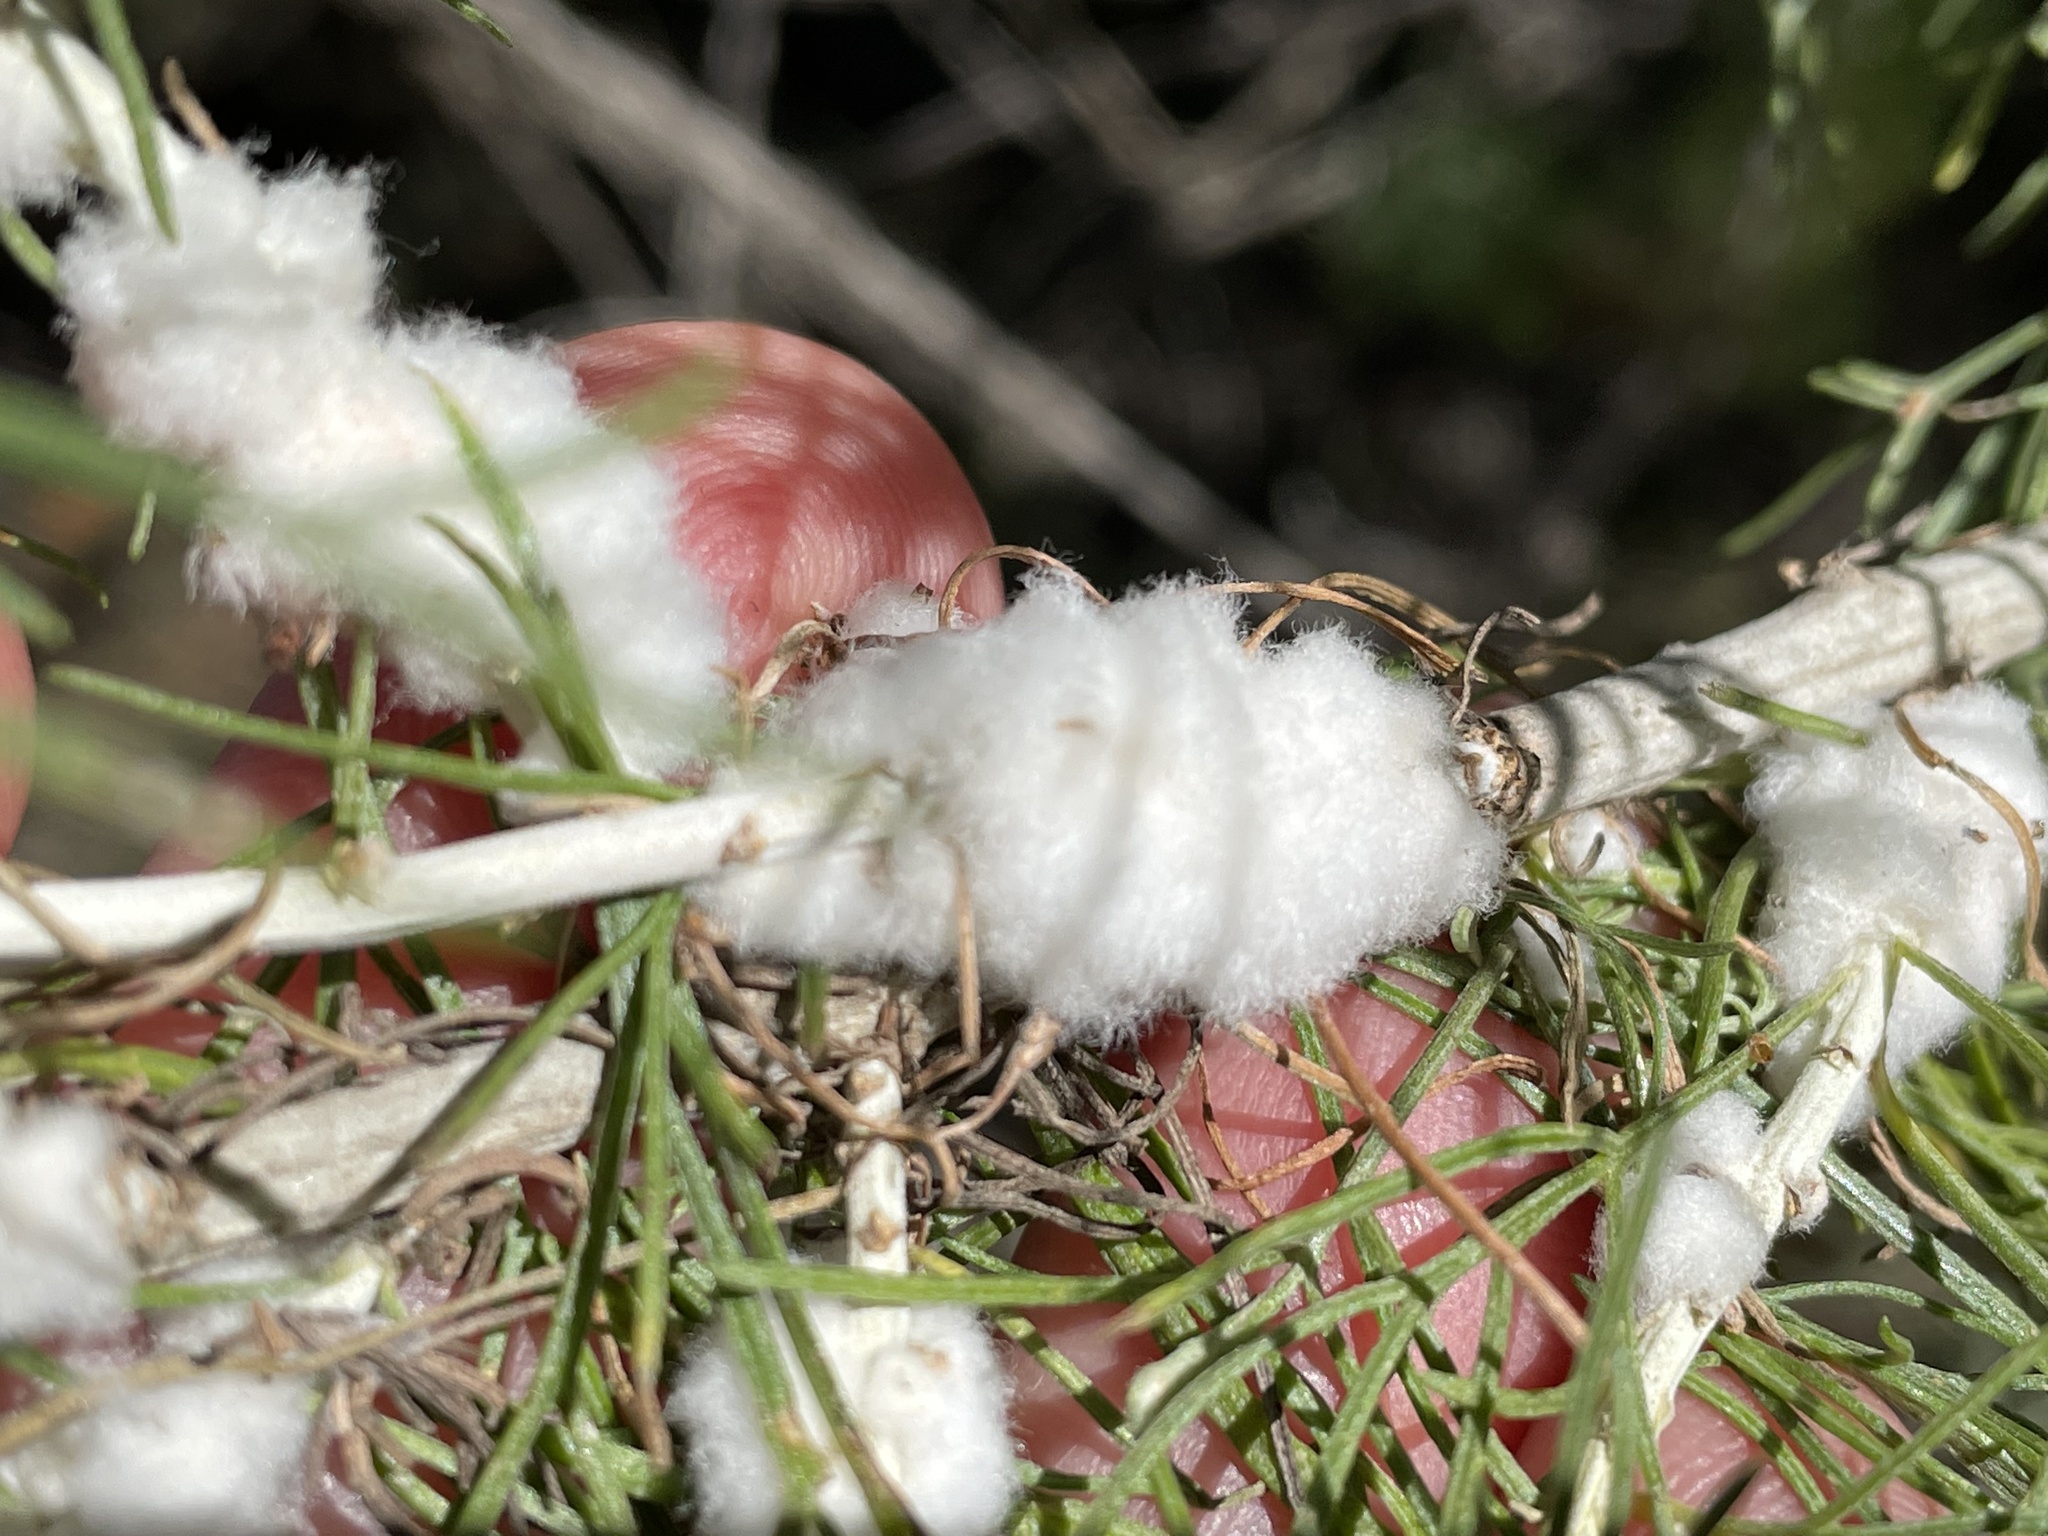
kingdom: Animalia
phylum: Arthropoda
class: Insecta
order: Diptera
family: Cecidomyiidae
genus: Rhopalomyia
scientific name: Rhopalomyia floccosa
